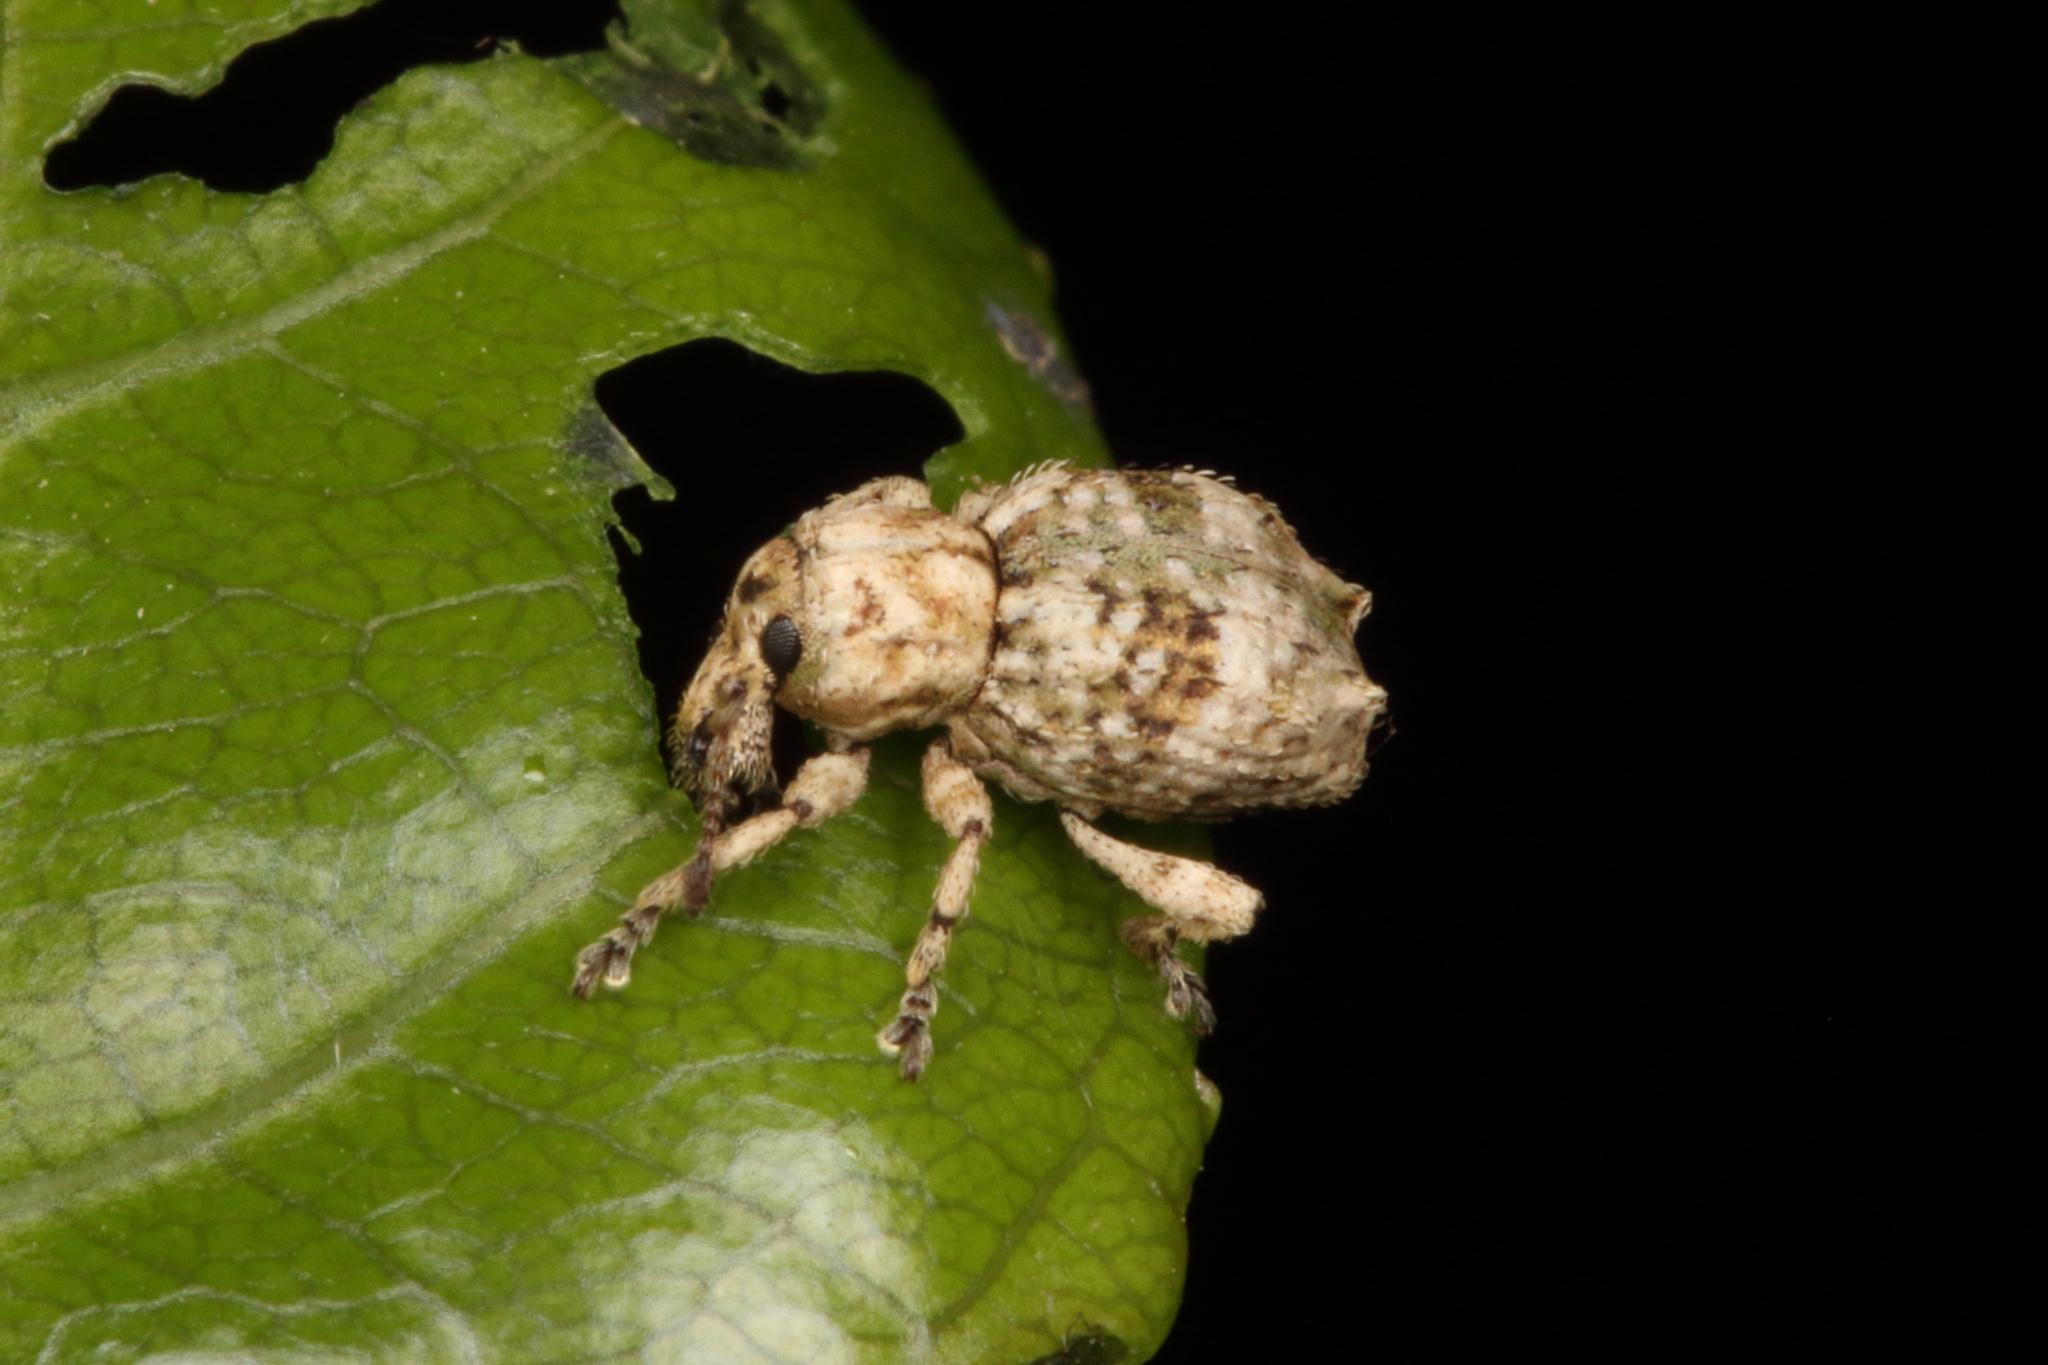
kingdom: Animalia
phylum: Arthropoda
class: Insecta
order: Coleoptera
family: Curculionidae
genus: Brachyolus
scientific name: Brachyolus punctatus
